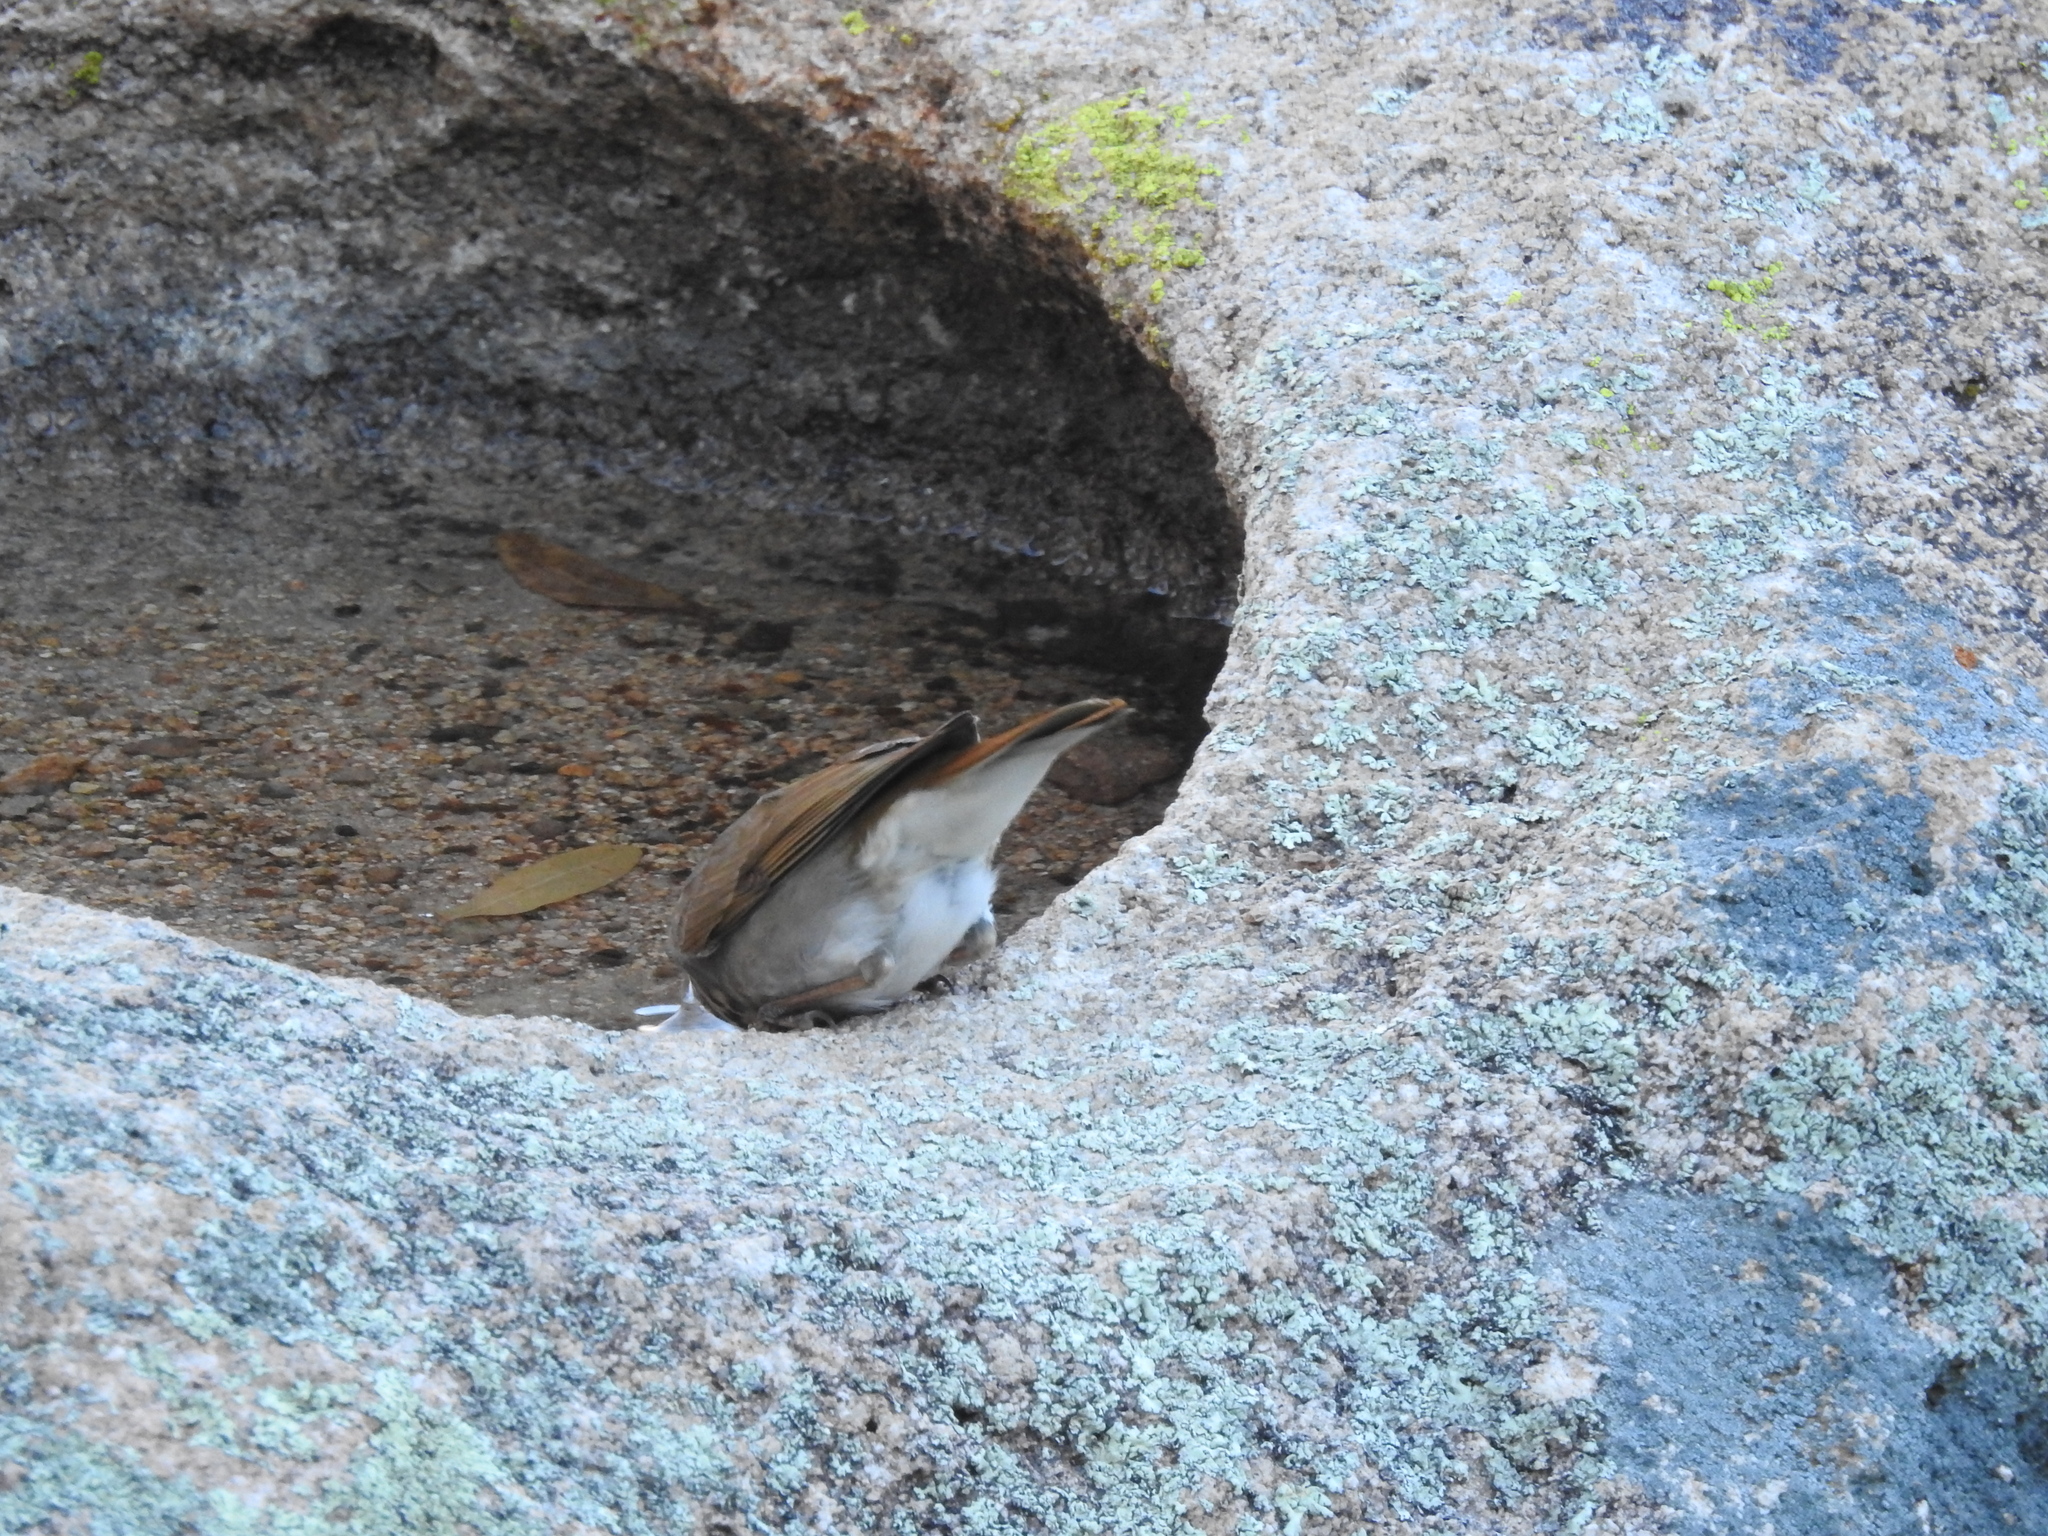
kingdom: Animalia
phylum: Chordata
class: Aves
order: Passeriformes
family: Turdidae
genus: Catharus
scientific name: Catharus guttatus
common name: Hermit thrush
